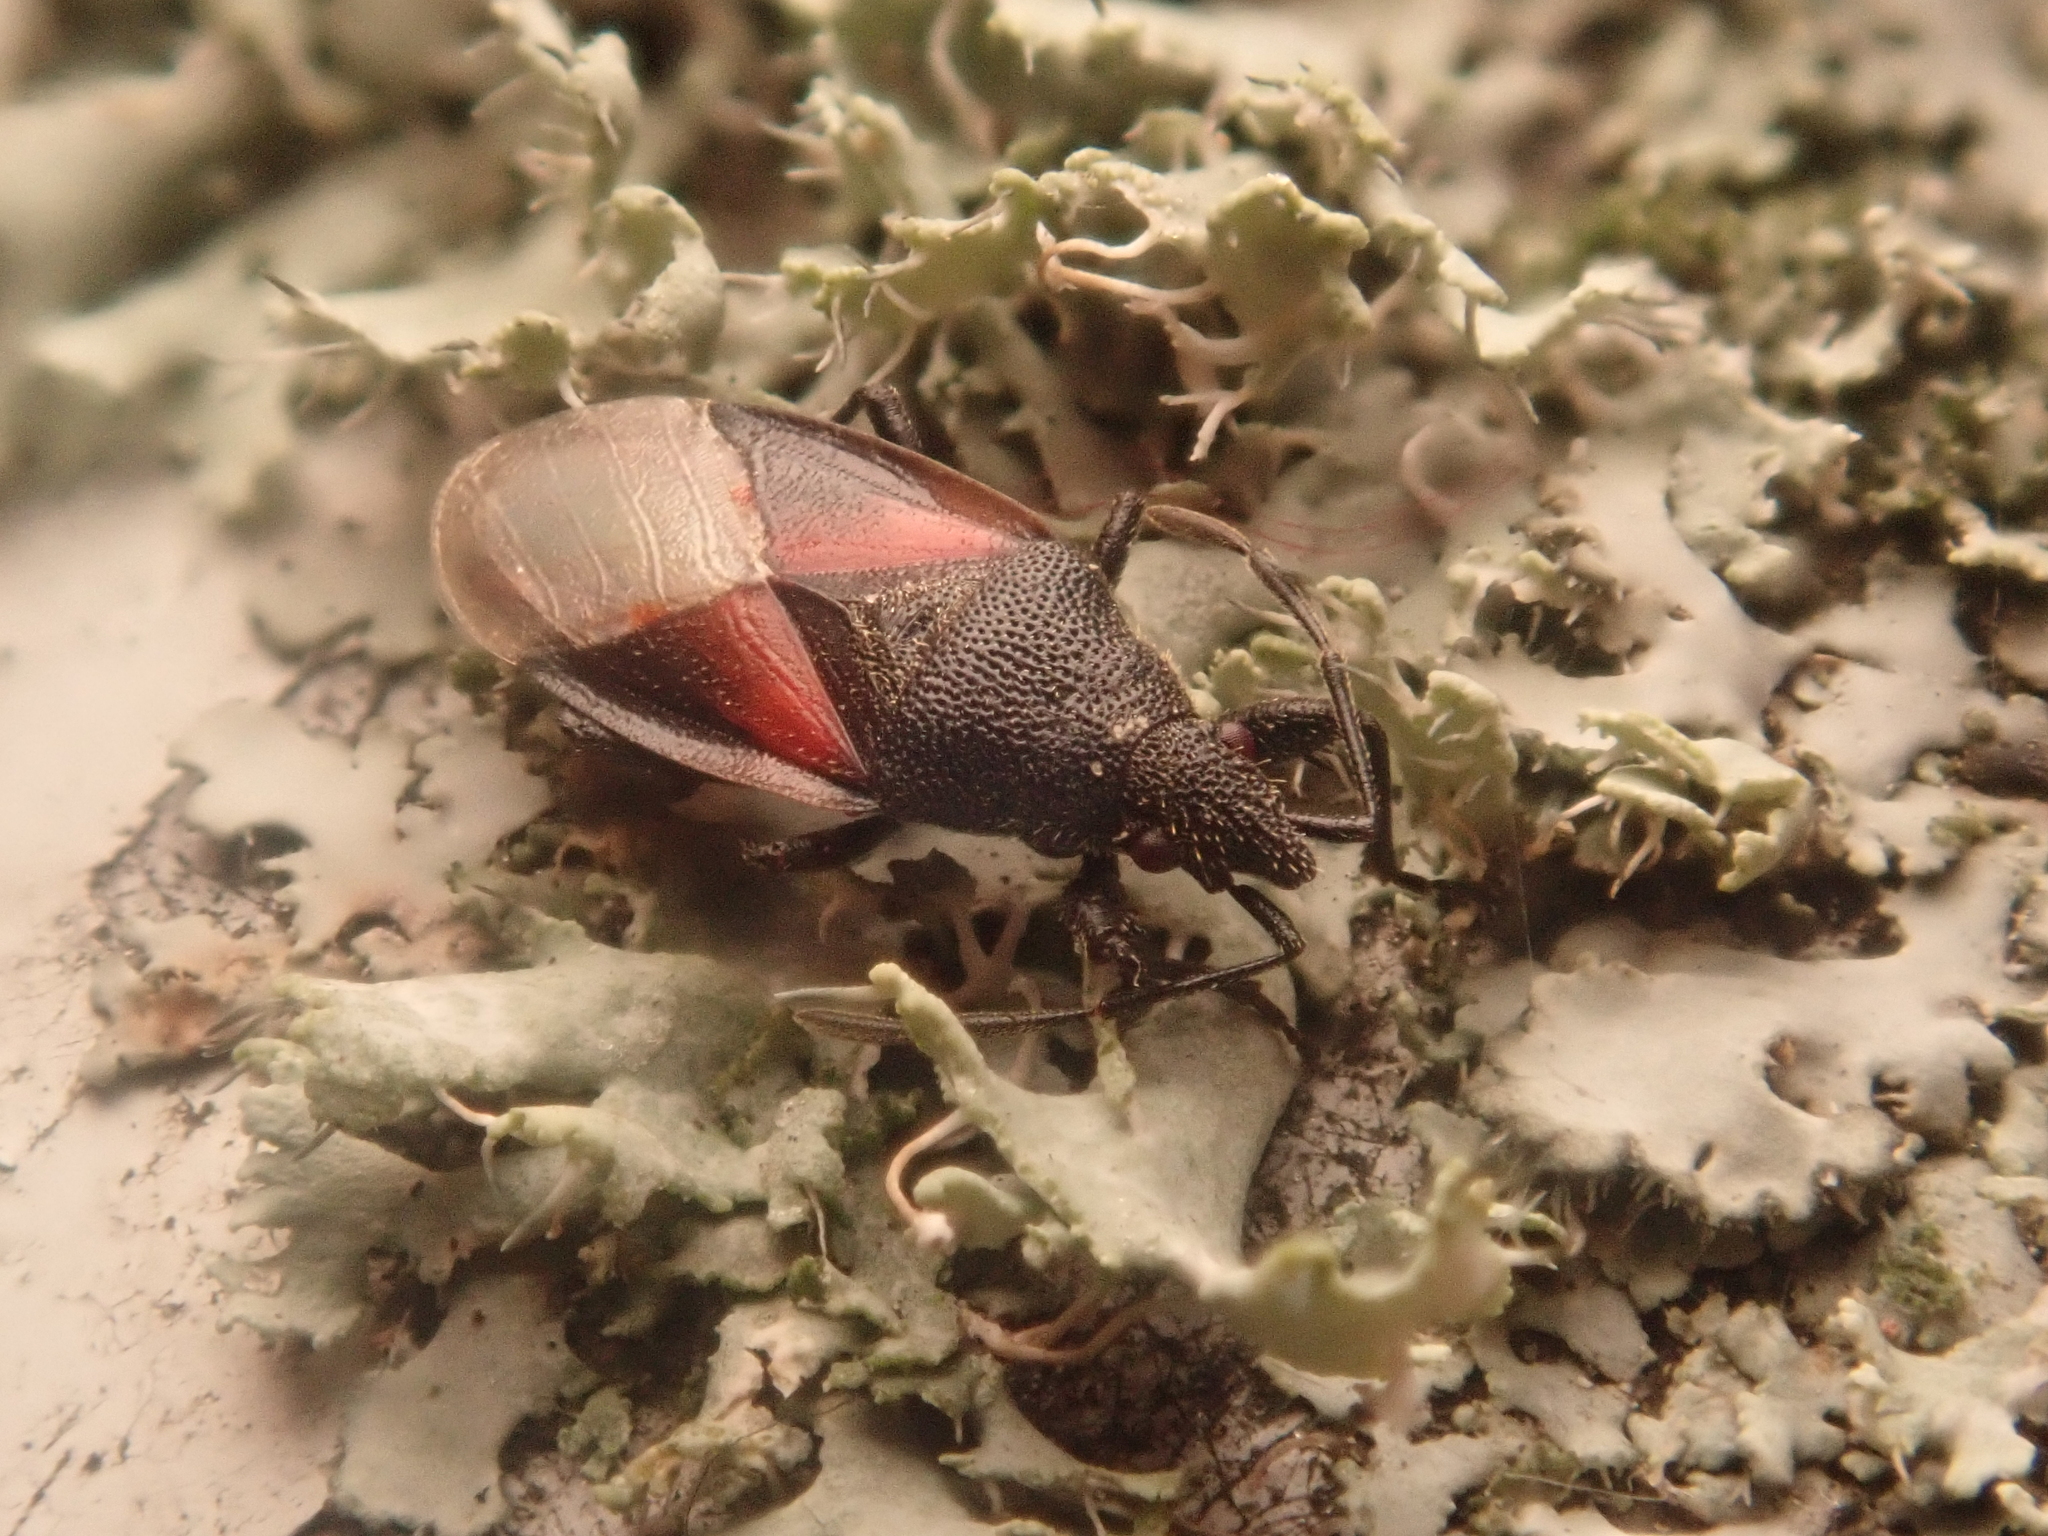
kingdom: Animalia
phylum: Arthropoda
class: Insecta
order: Hemiptera
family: Oxycarenidae
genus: Oxycarenus
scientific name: Oxycarenus lavaterae
